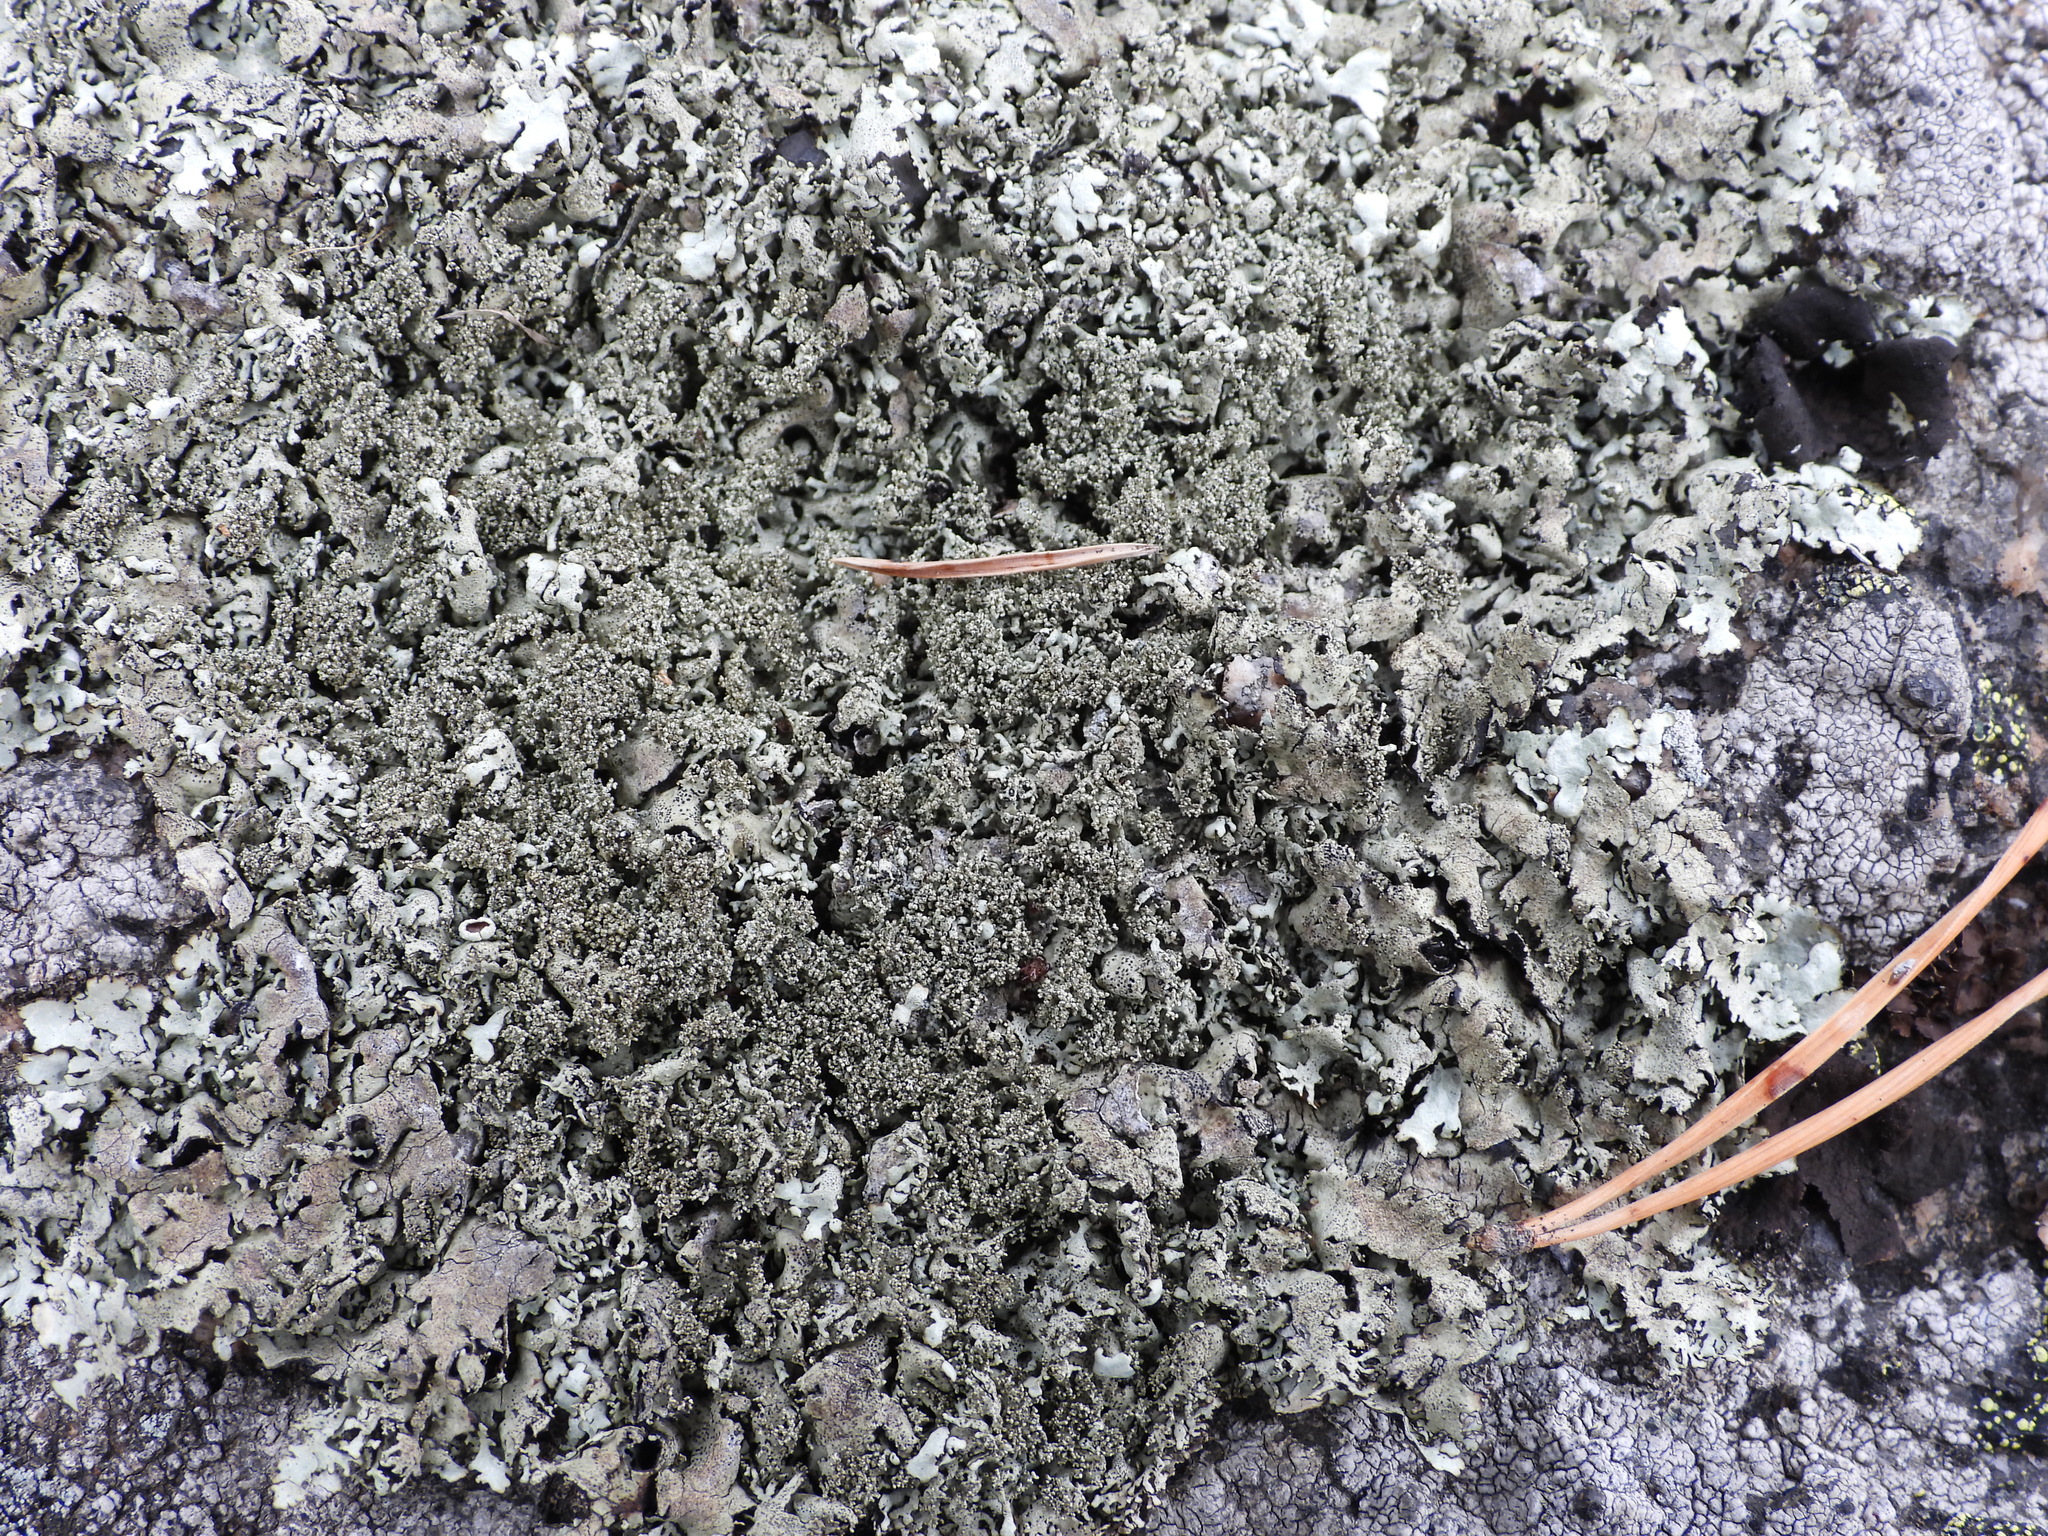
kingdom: Fungi
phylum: Ascomycota
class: Lecanoromycetes
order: Lecanorales
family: Parmeliaceae
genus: Xanthoparmelia
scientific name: Xanthoparmelia conspersa
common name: Peppered rock shield
